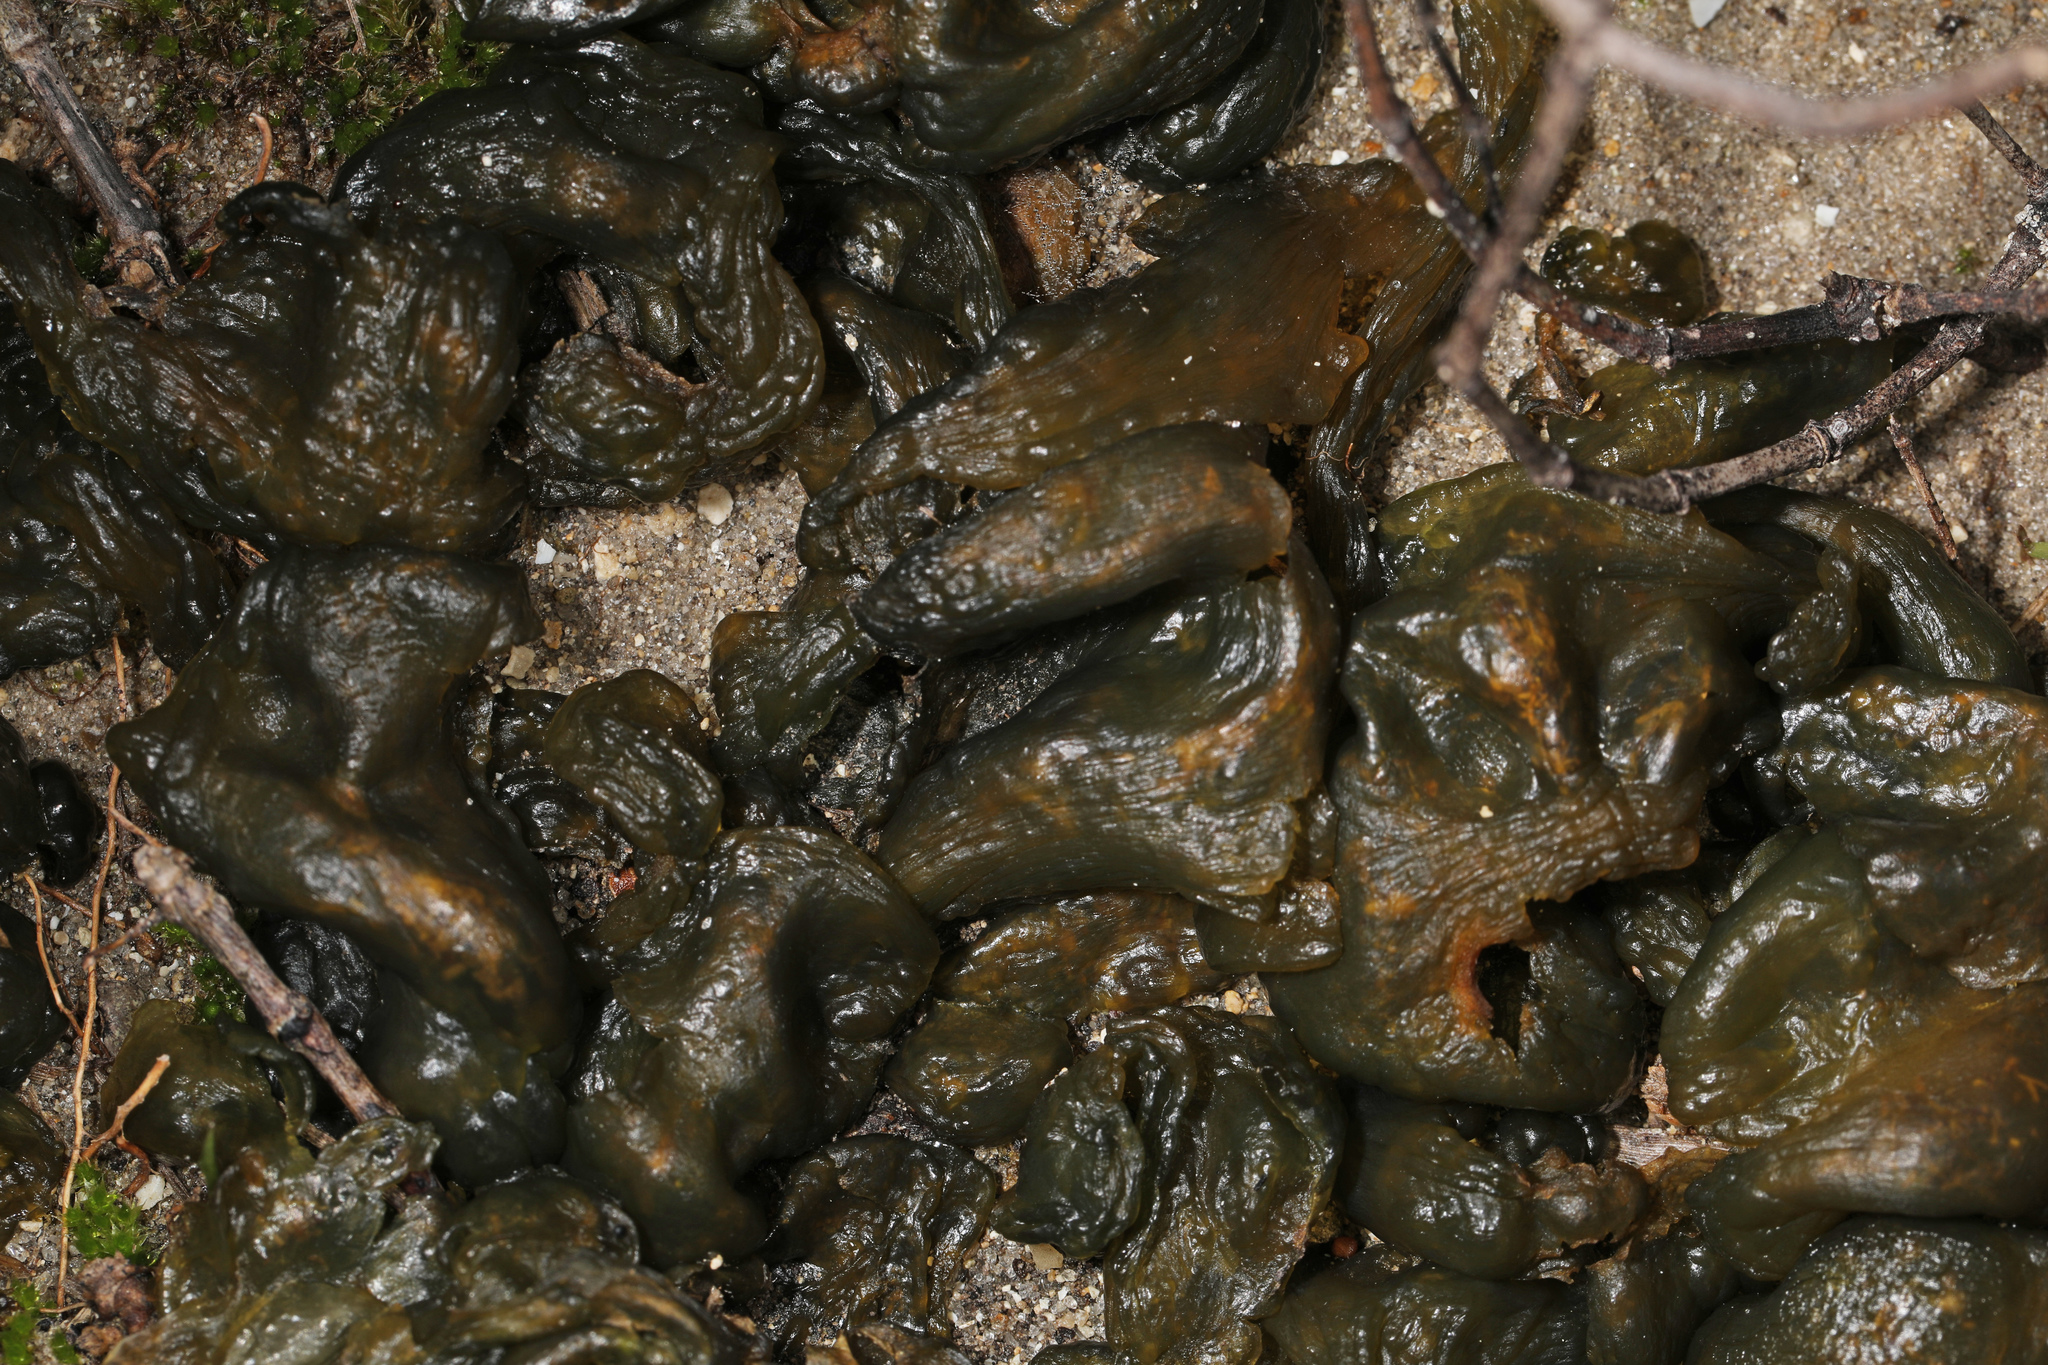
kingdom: Bacteria
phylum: Cyanobacteria
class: Cyanobacteriia
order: Cyanobacteriales
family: Nostocaceae
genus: Nostoc
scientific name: Nostoc commune
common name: Star jelly
